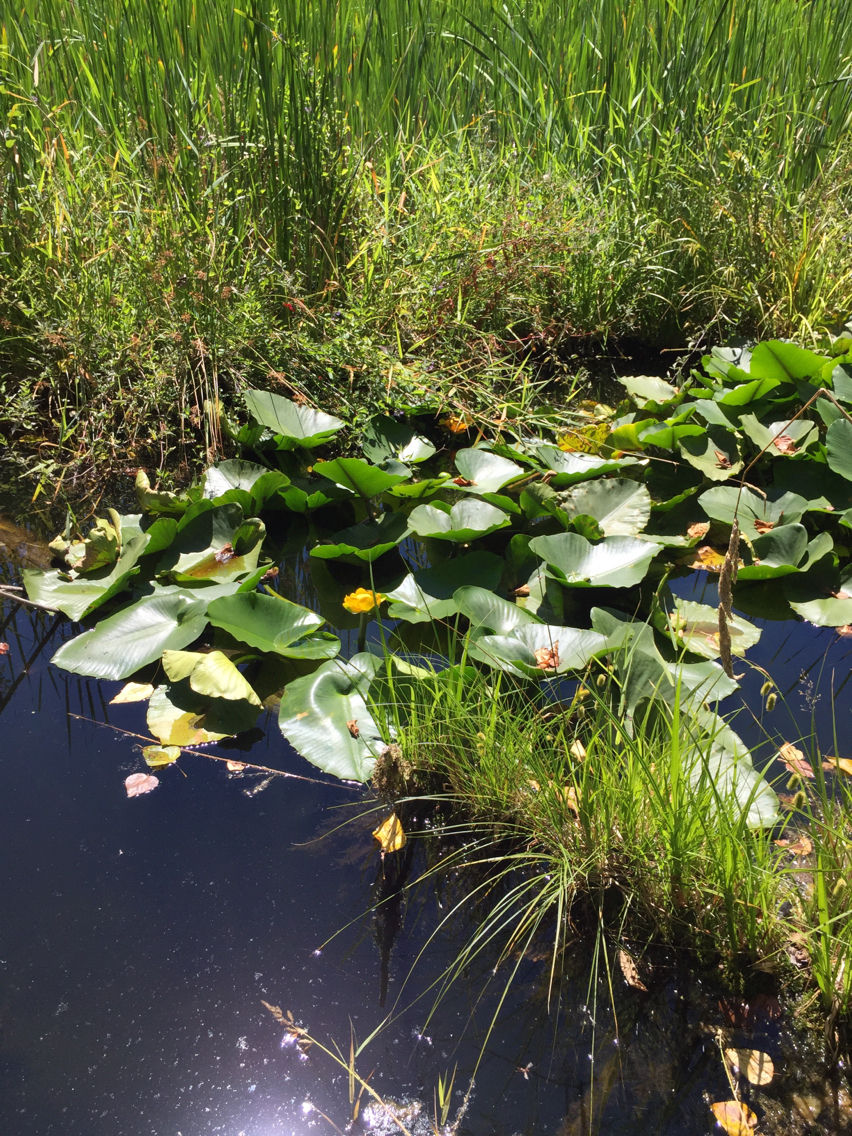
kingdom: Plantae
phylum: Tracheophyta
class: Magnoliopsida
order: Nymphaeales
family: Nymphaeaceae
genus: Nuphar
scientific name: Nuphar polysepala
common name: Rocky mountain cow-lily
